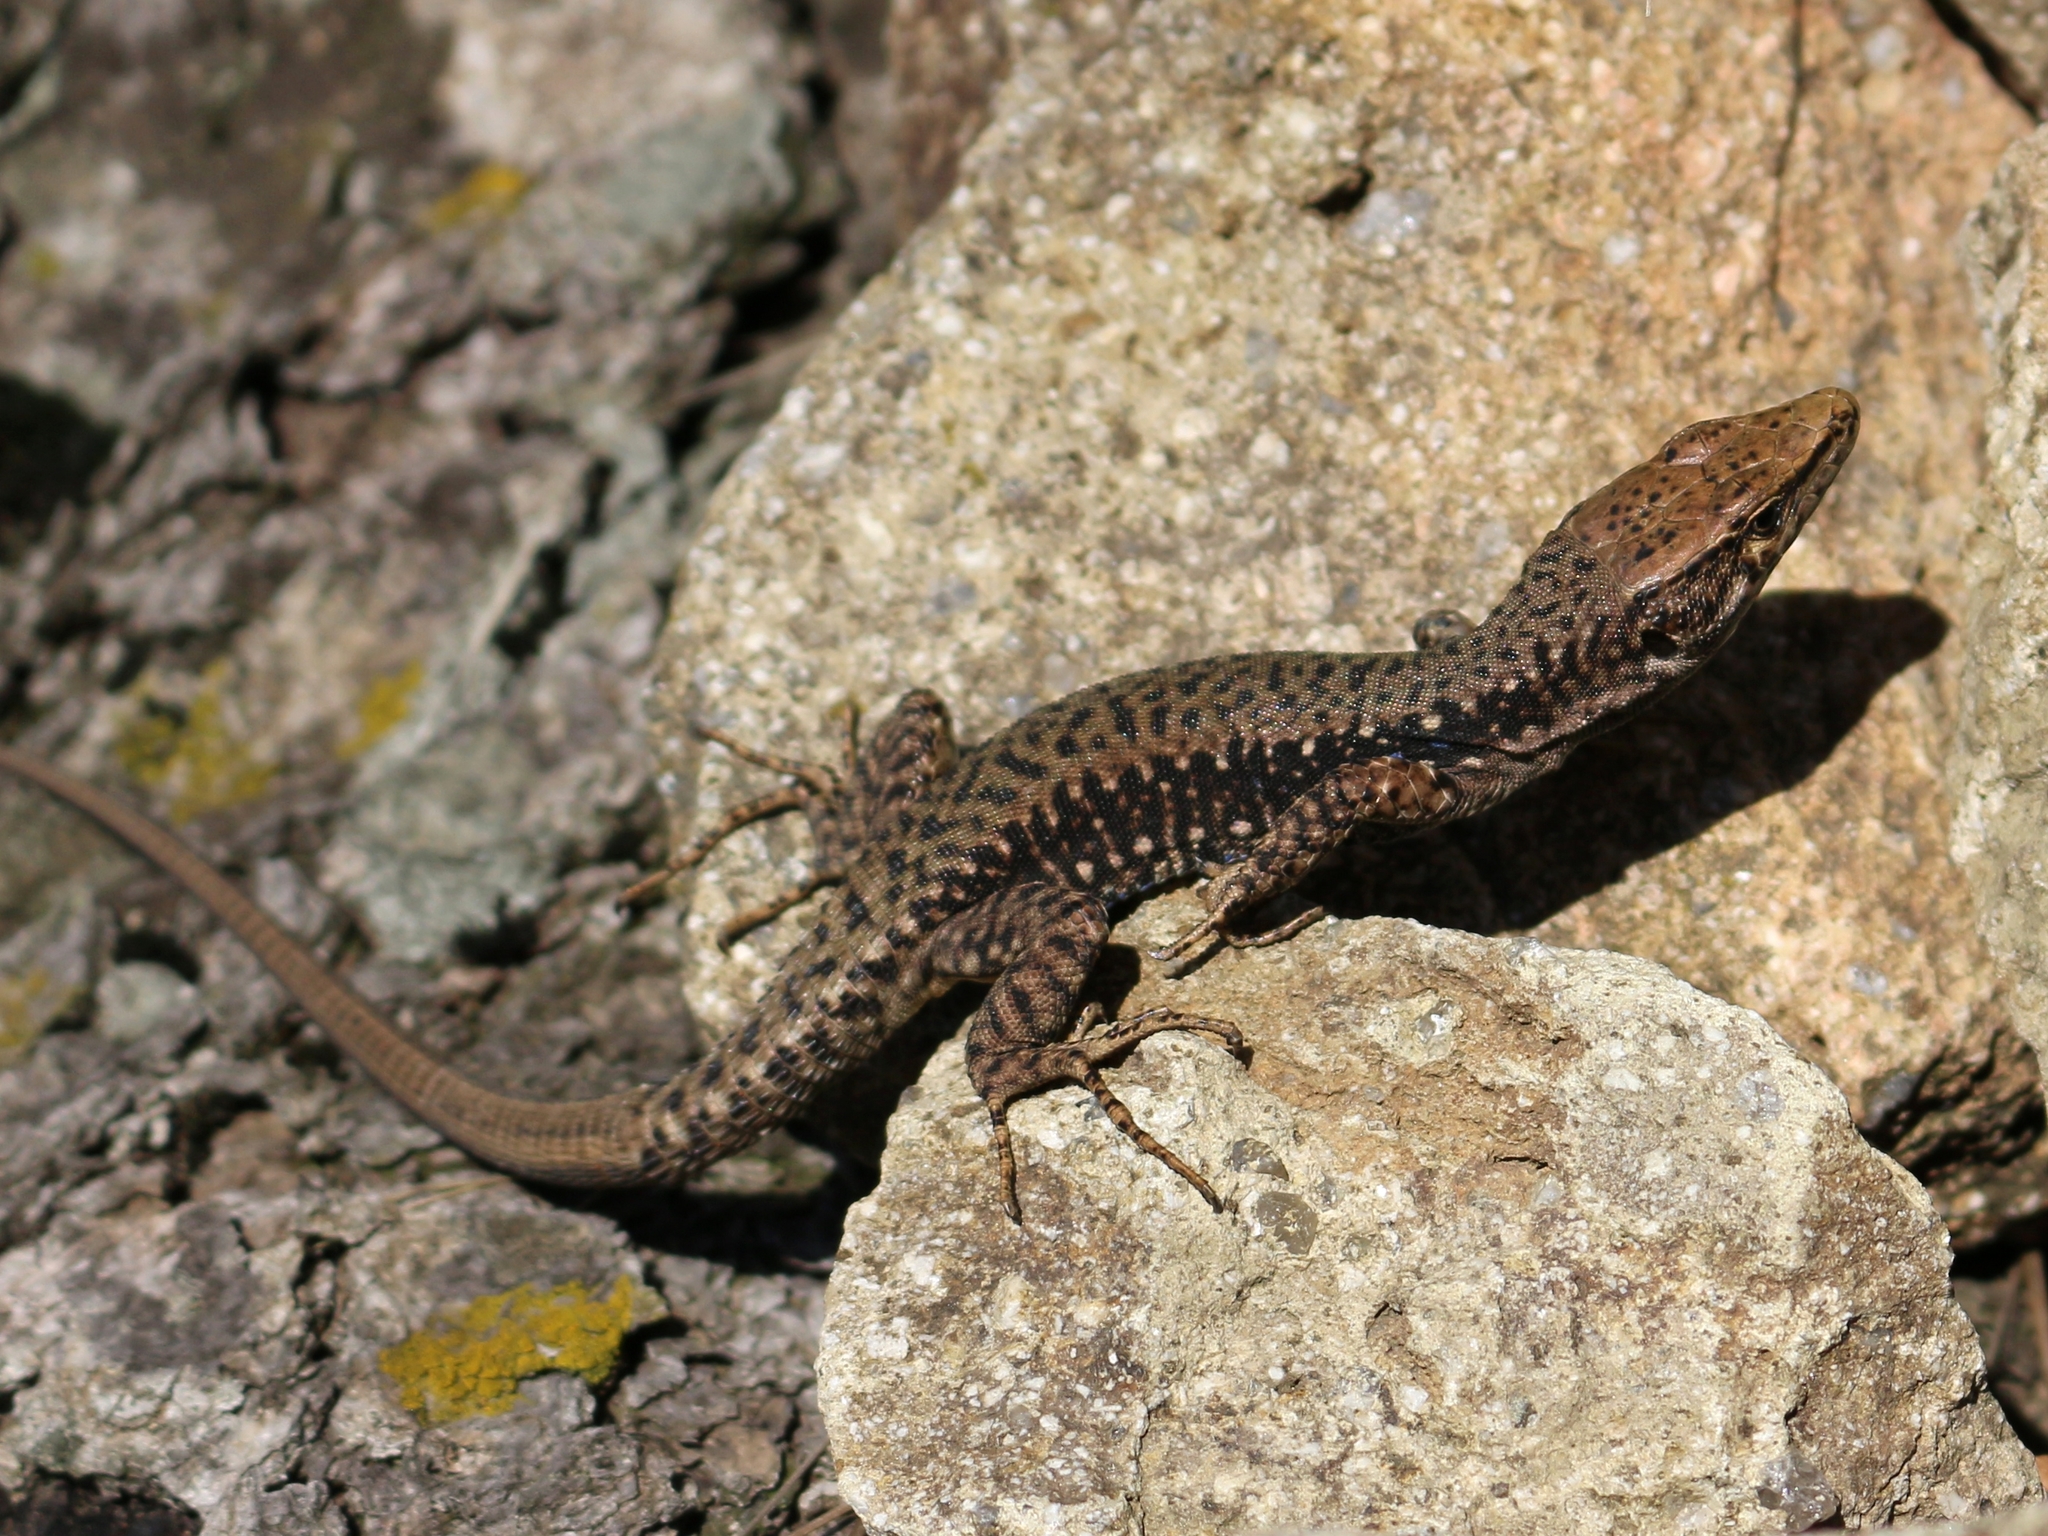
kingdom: Animalia
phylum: Chordata
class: Squamata
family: Lacertidae
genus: Darevskia
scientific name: Darevskia brauneri
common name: Brauner's rock lizard
